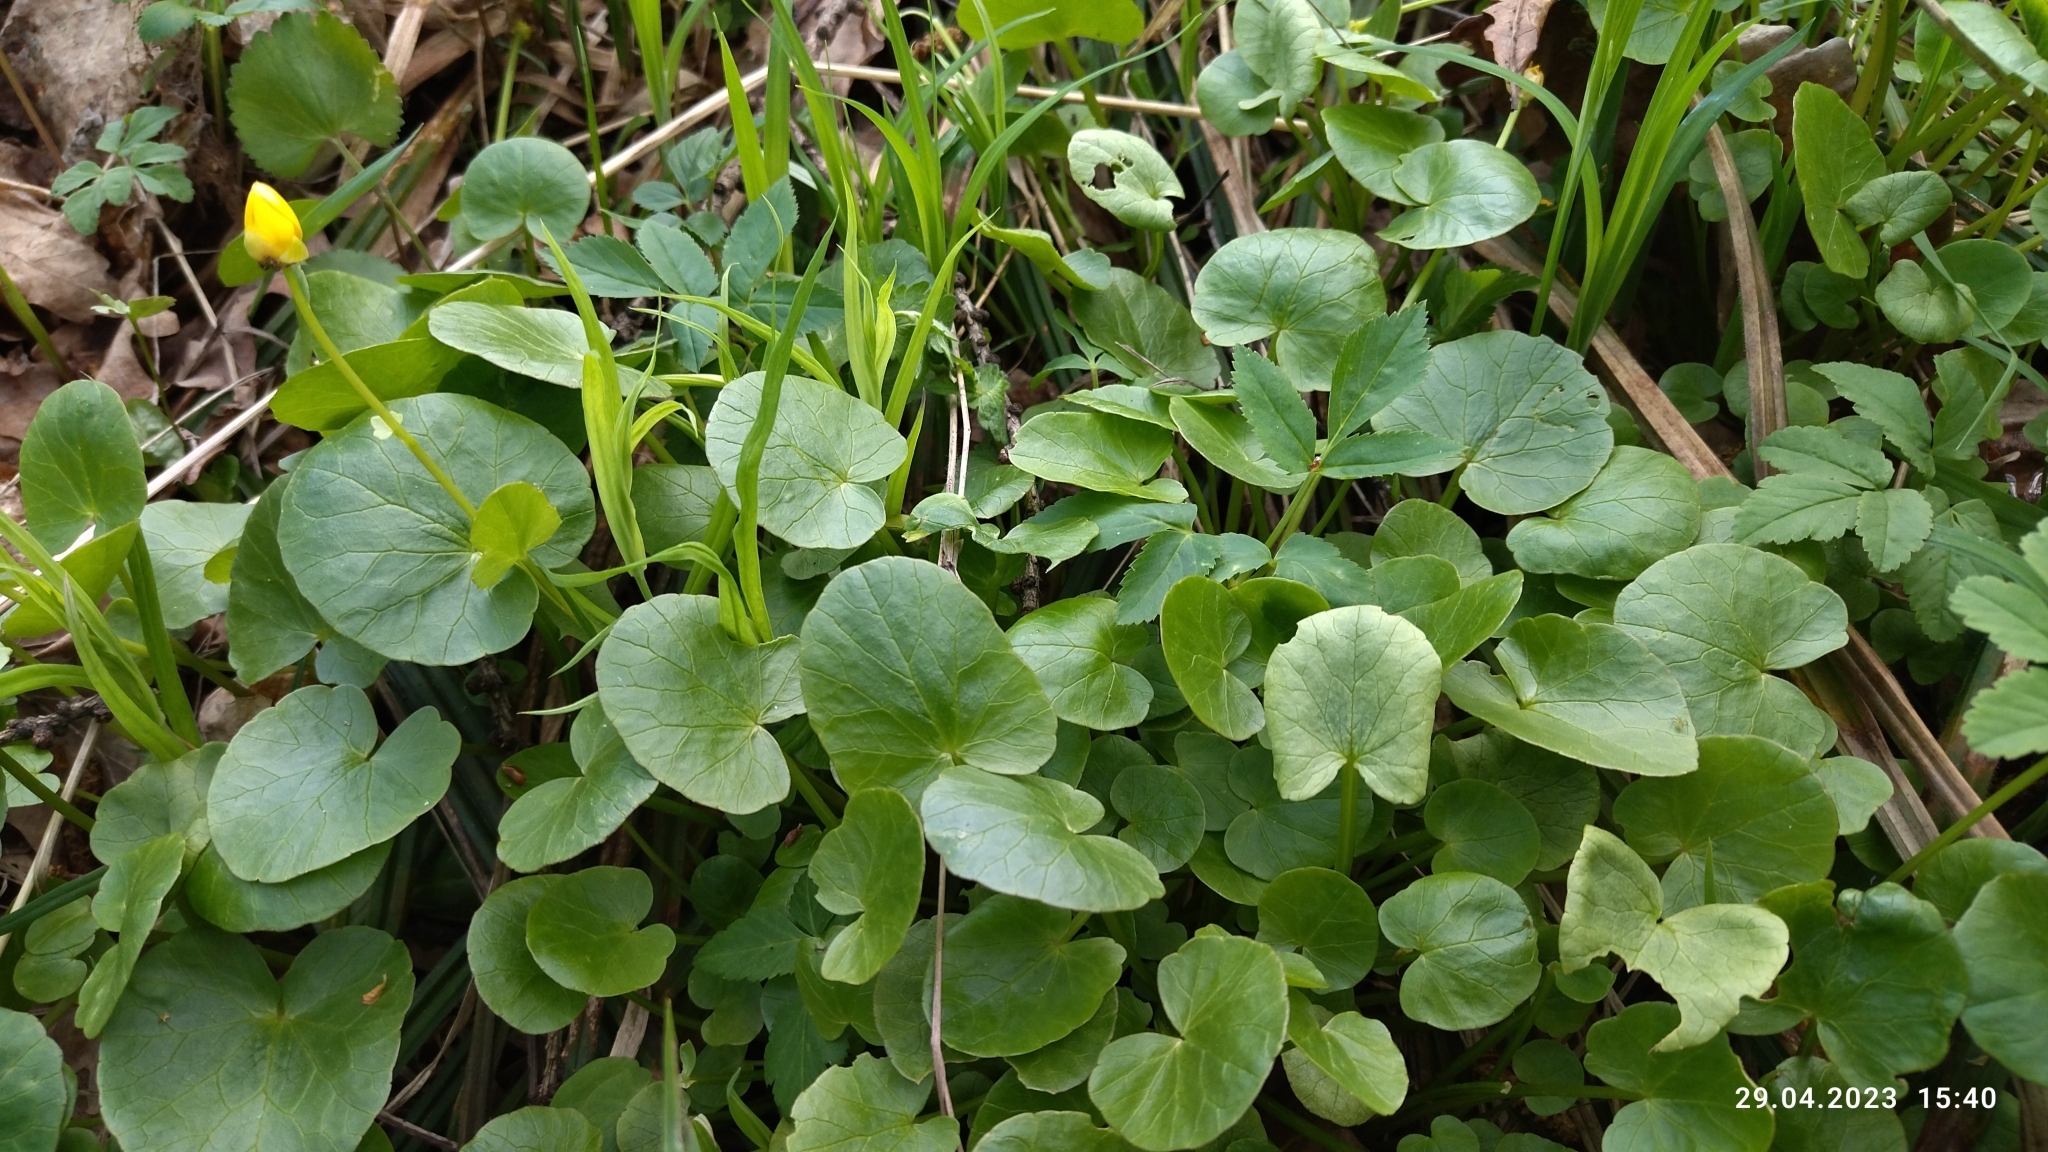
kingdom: Plantae
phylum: Tracheophyta
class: Magnoliopsida
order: Ranunculales
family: Ranunculaceae
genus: Ficaria
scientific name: Ficaria verna
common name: Lesser celandine
